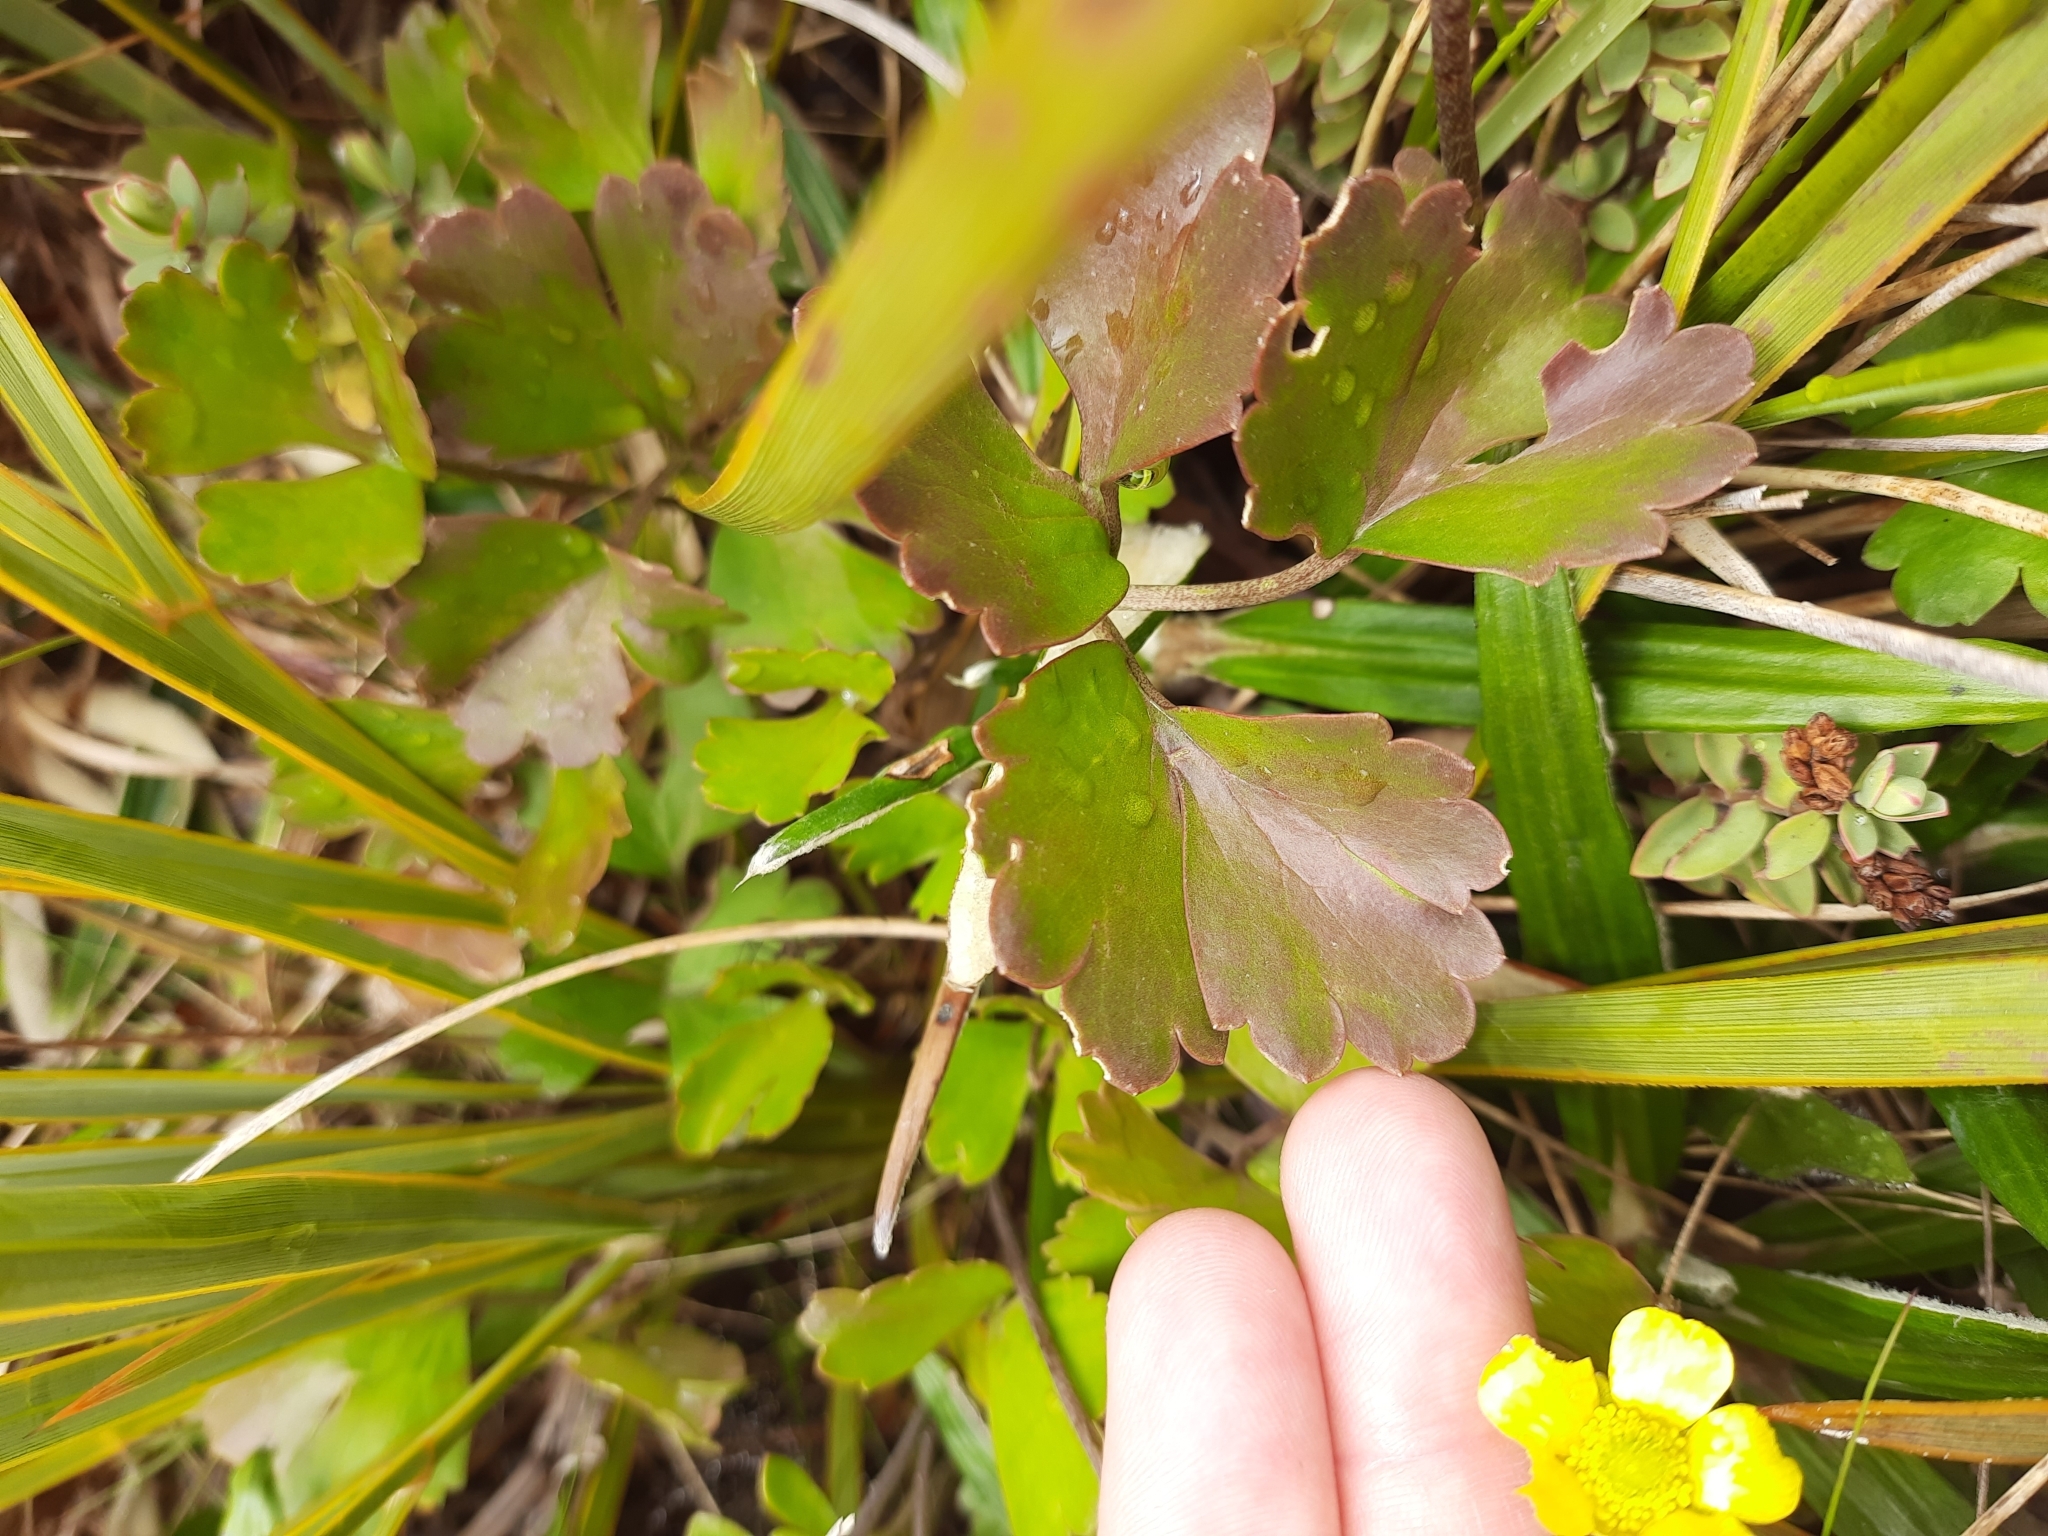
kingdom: Plantae
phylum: Tracheophyta
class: Magnoliopsida
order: Ranunculales
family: Ranunculaceae
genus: Ranunculus
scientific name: Ranunculus enysii
